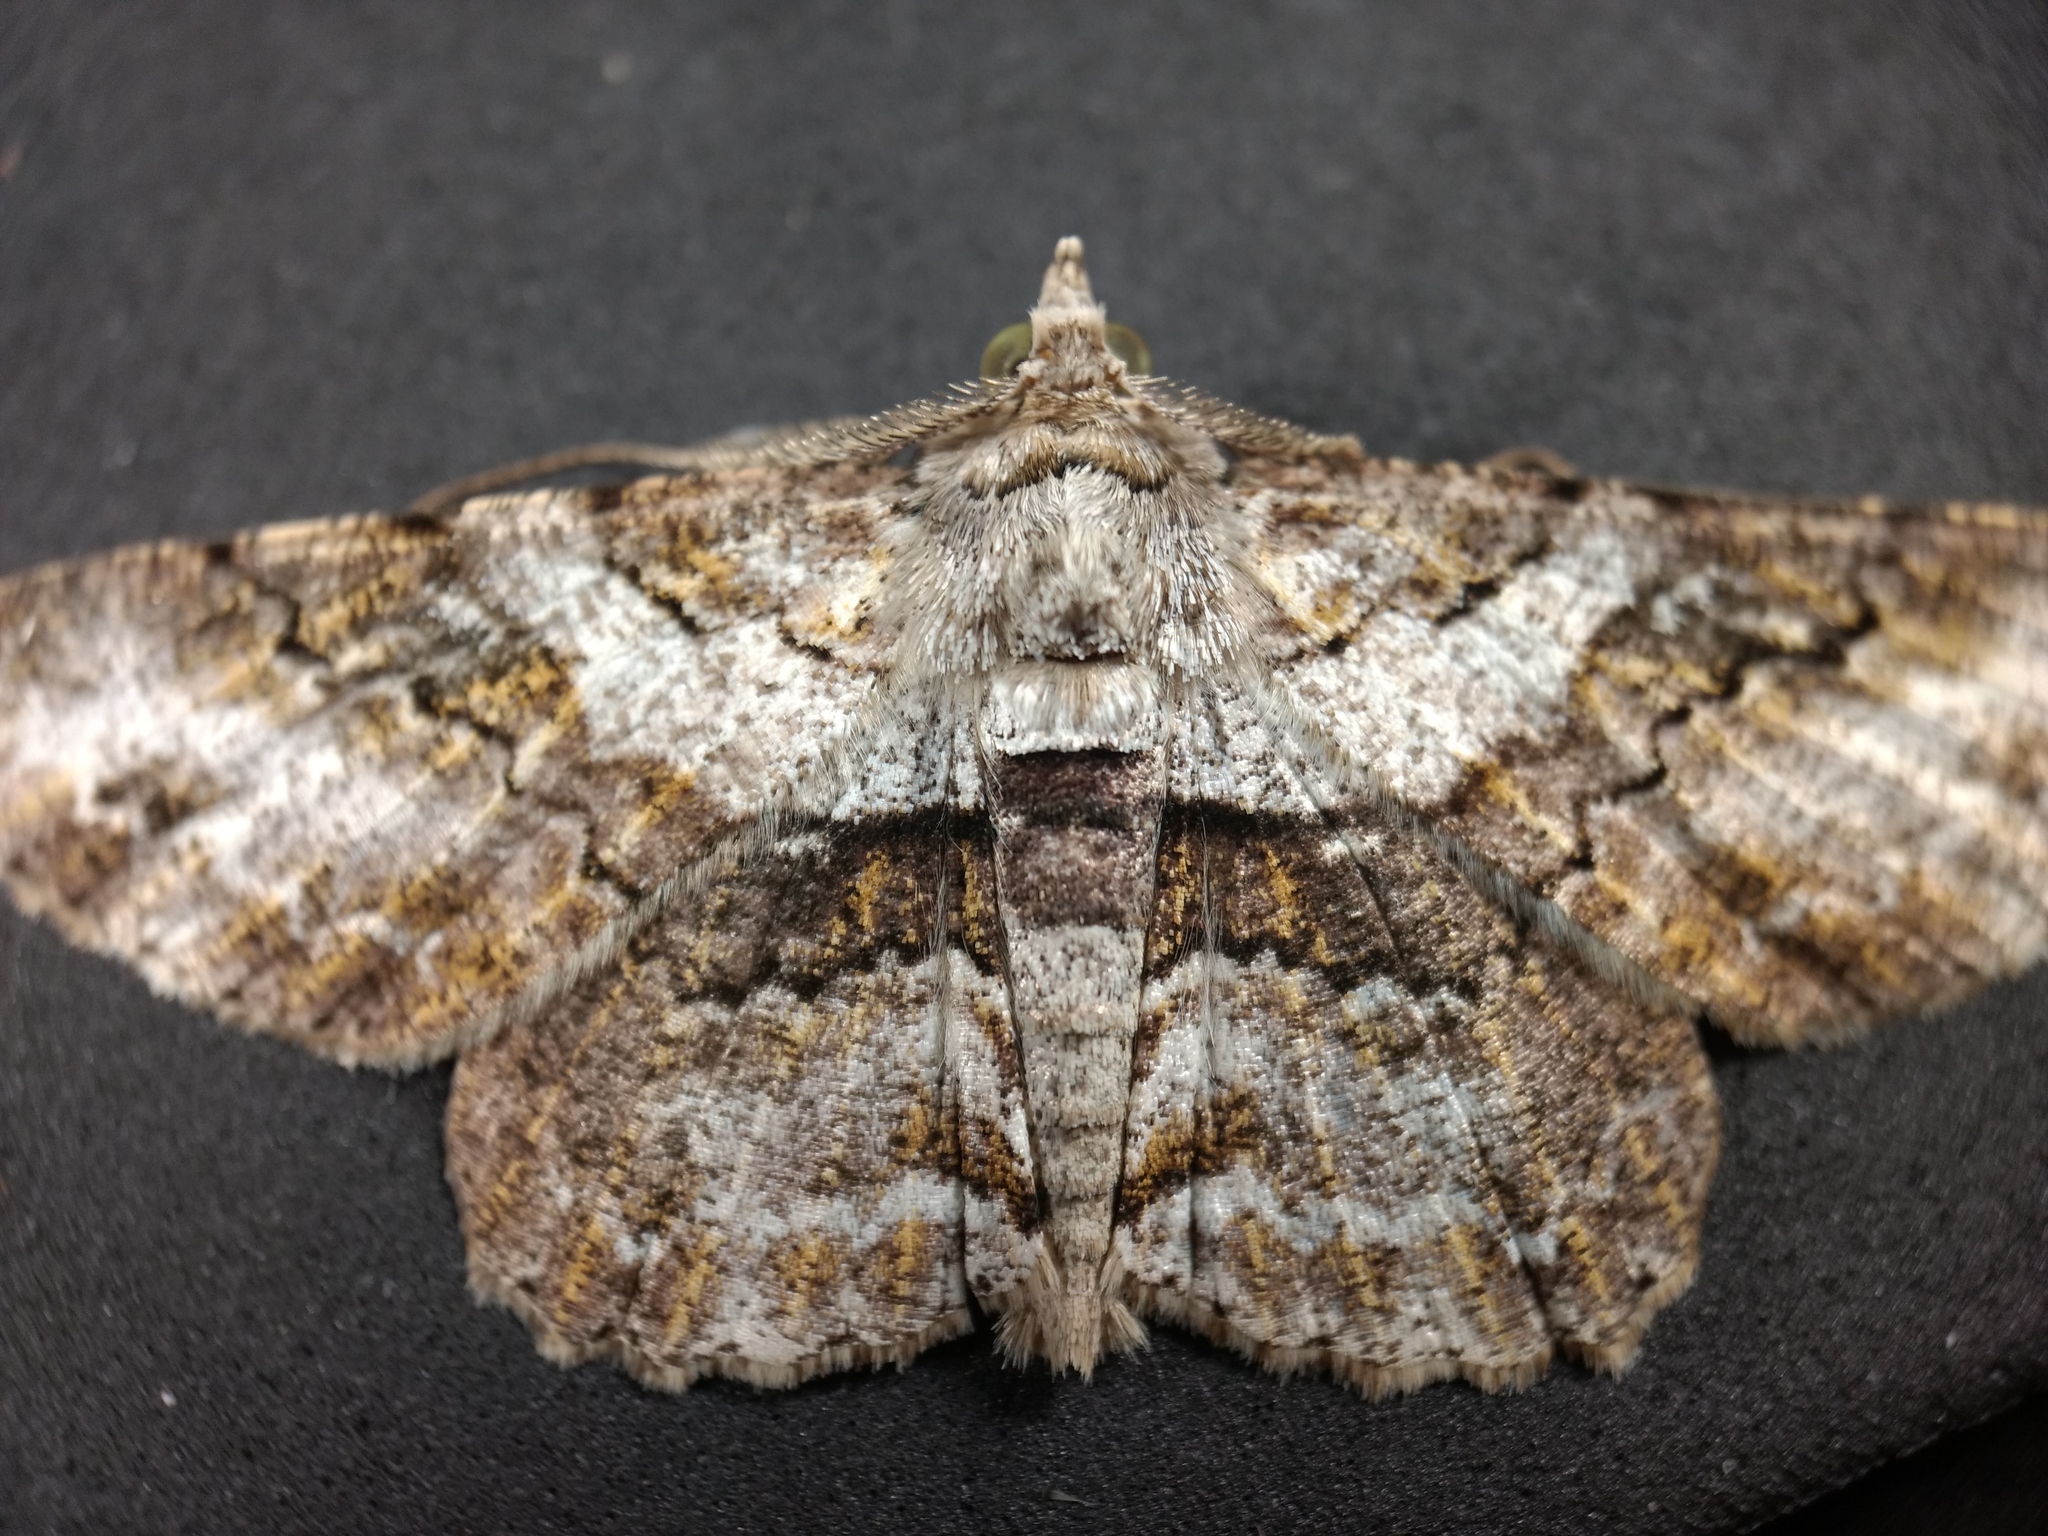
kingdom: Animalia
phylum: Arthropoda
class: Insecta
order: Lepidoptera
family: Geometridae
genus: Cleora
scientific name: Cleora repetita
